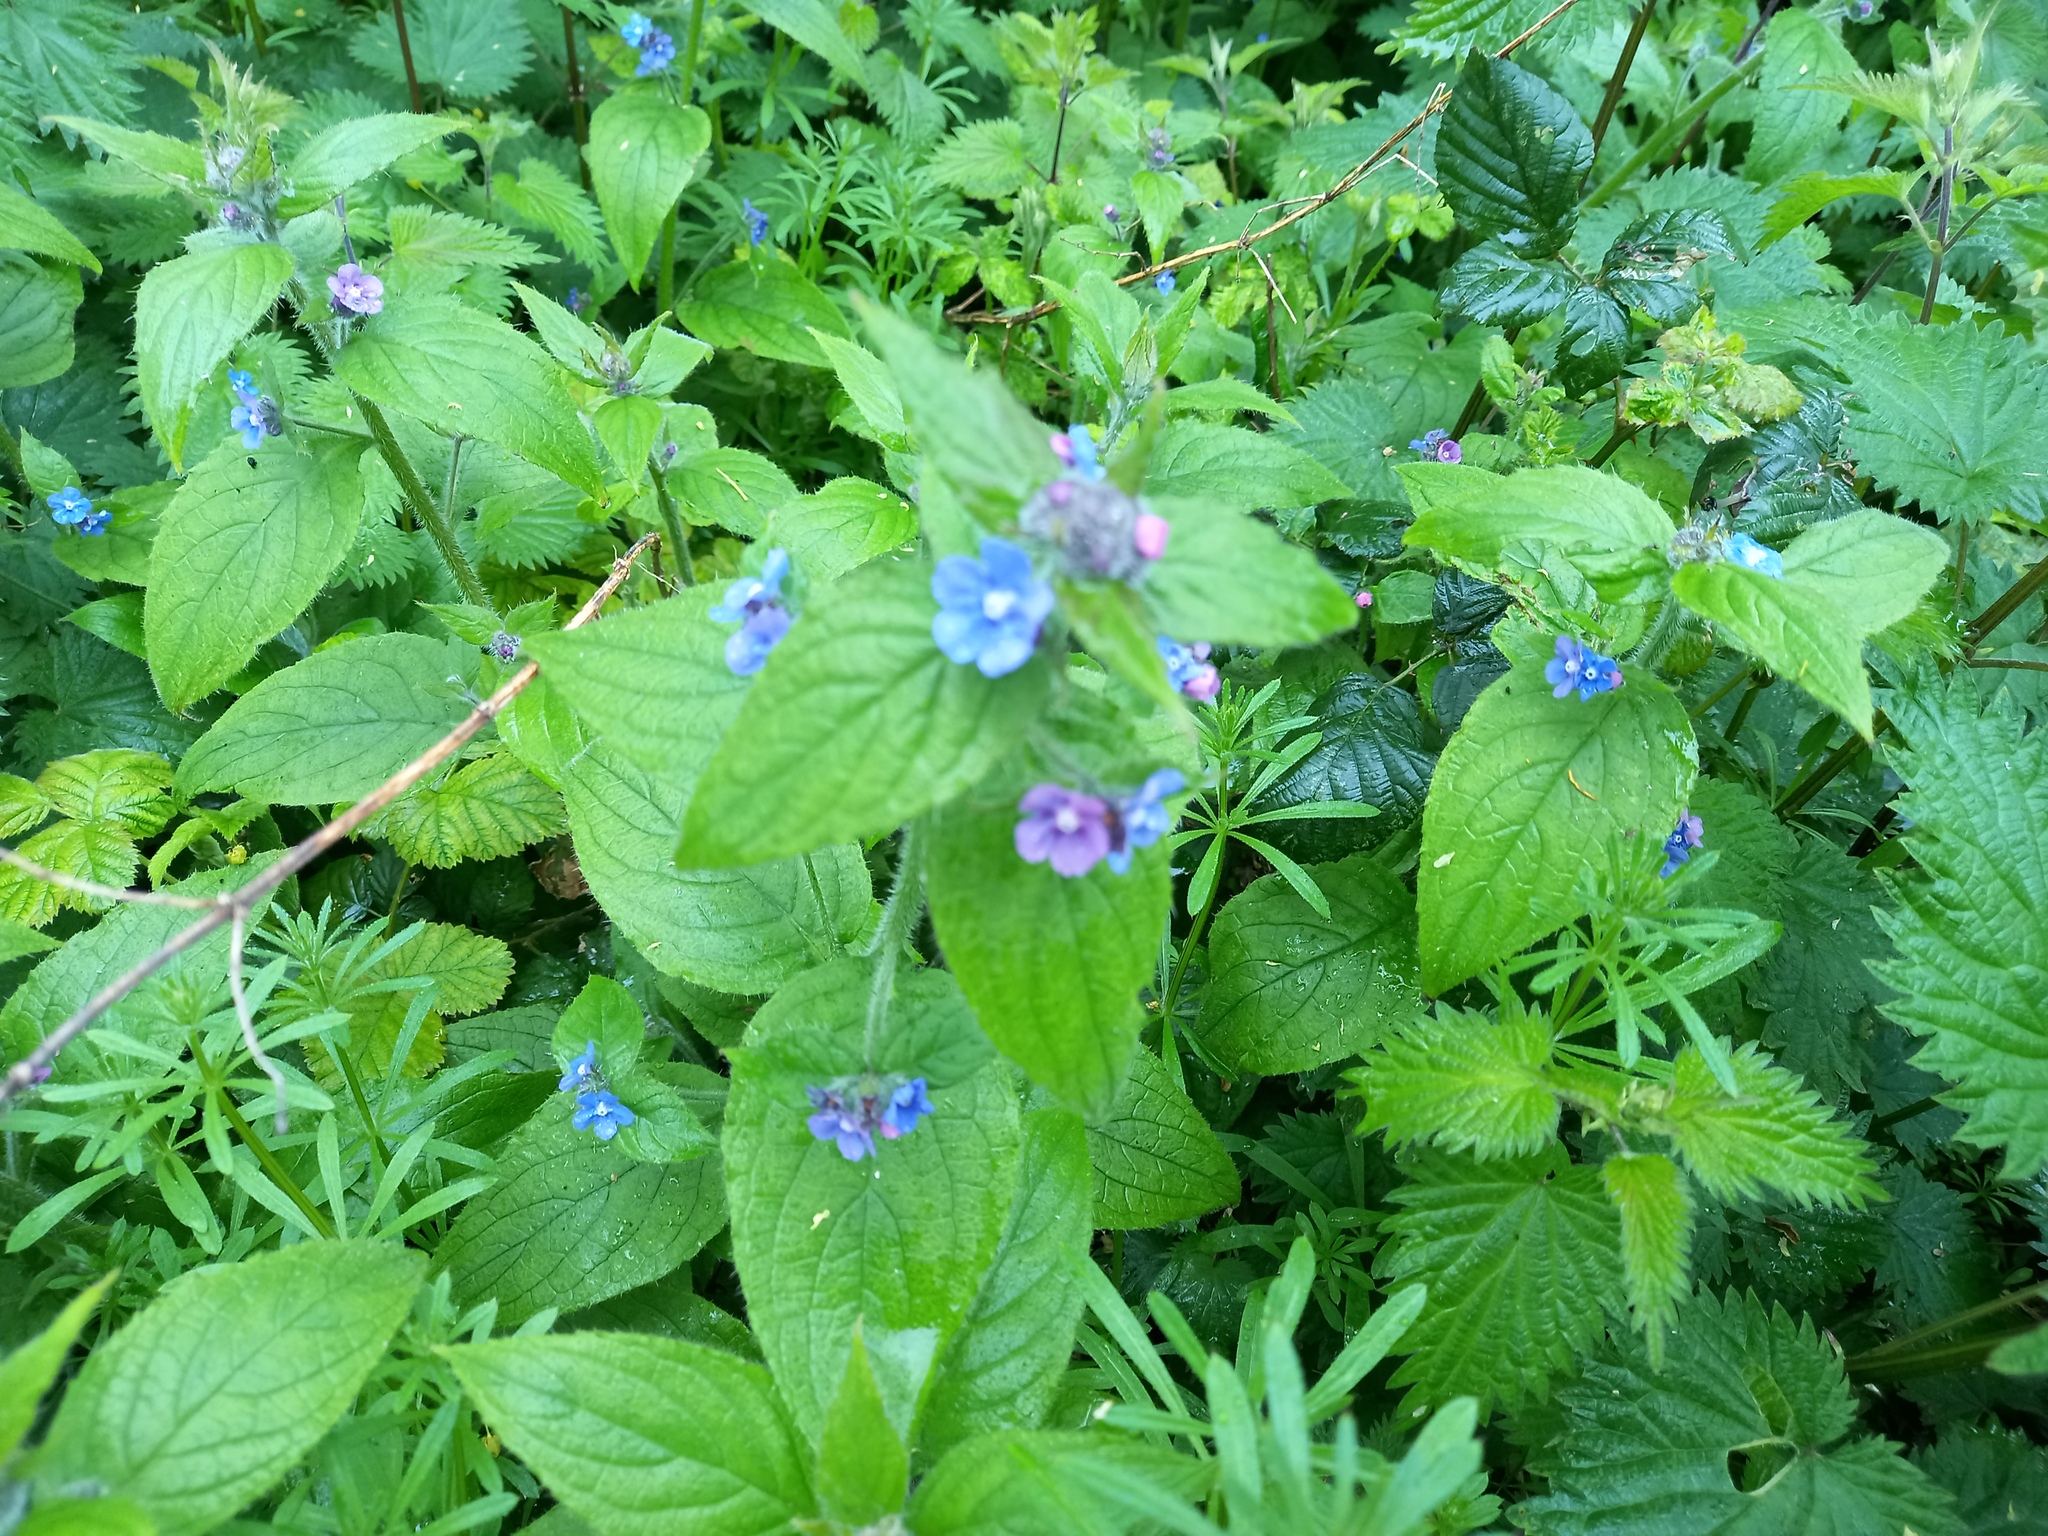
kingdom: Plantae
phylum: Tracheophyta
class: Magnoliopsida
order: Boraginales
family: Boraginaceae
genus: Pentaglottis
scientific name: Pentaglottis sempervirens
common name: Green alkanet
